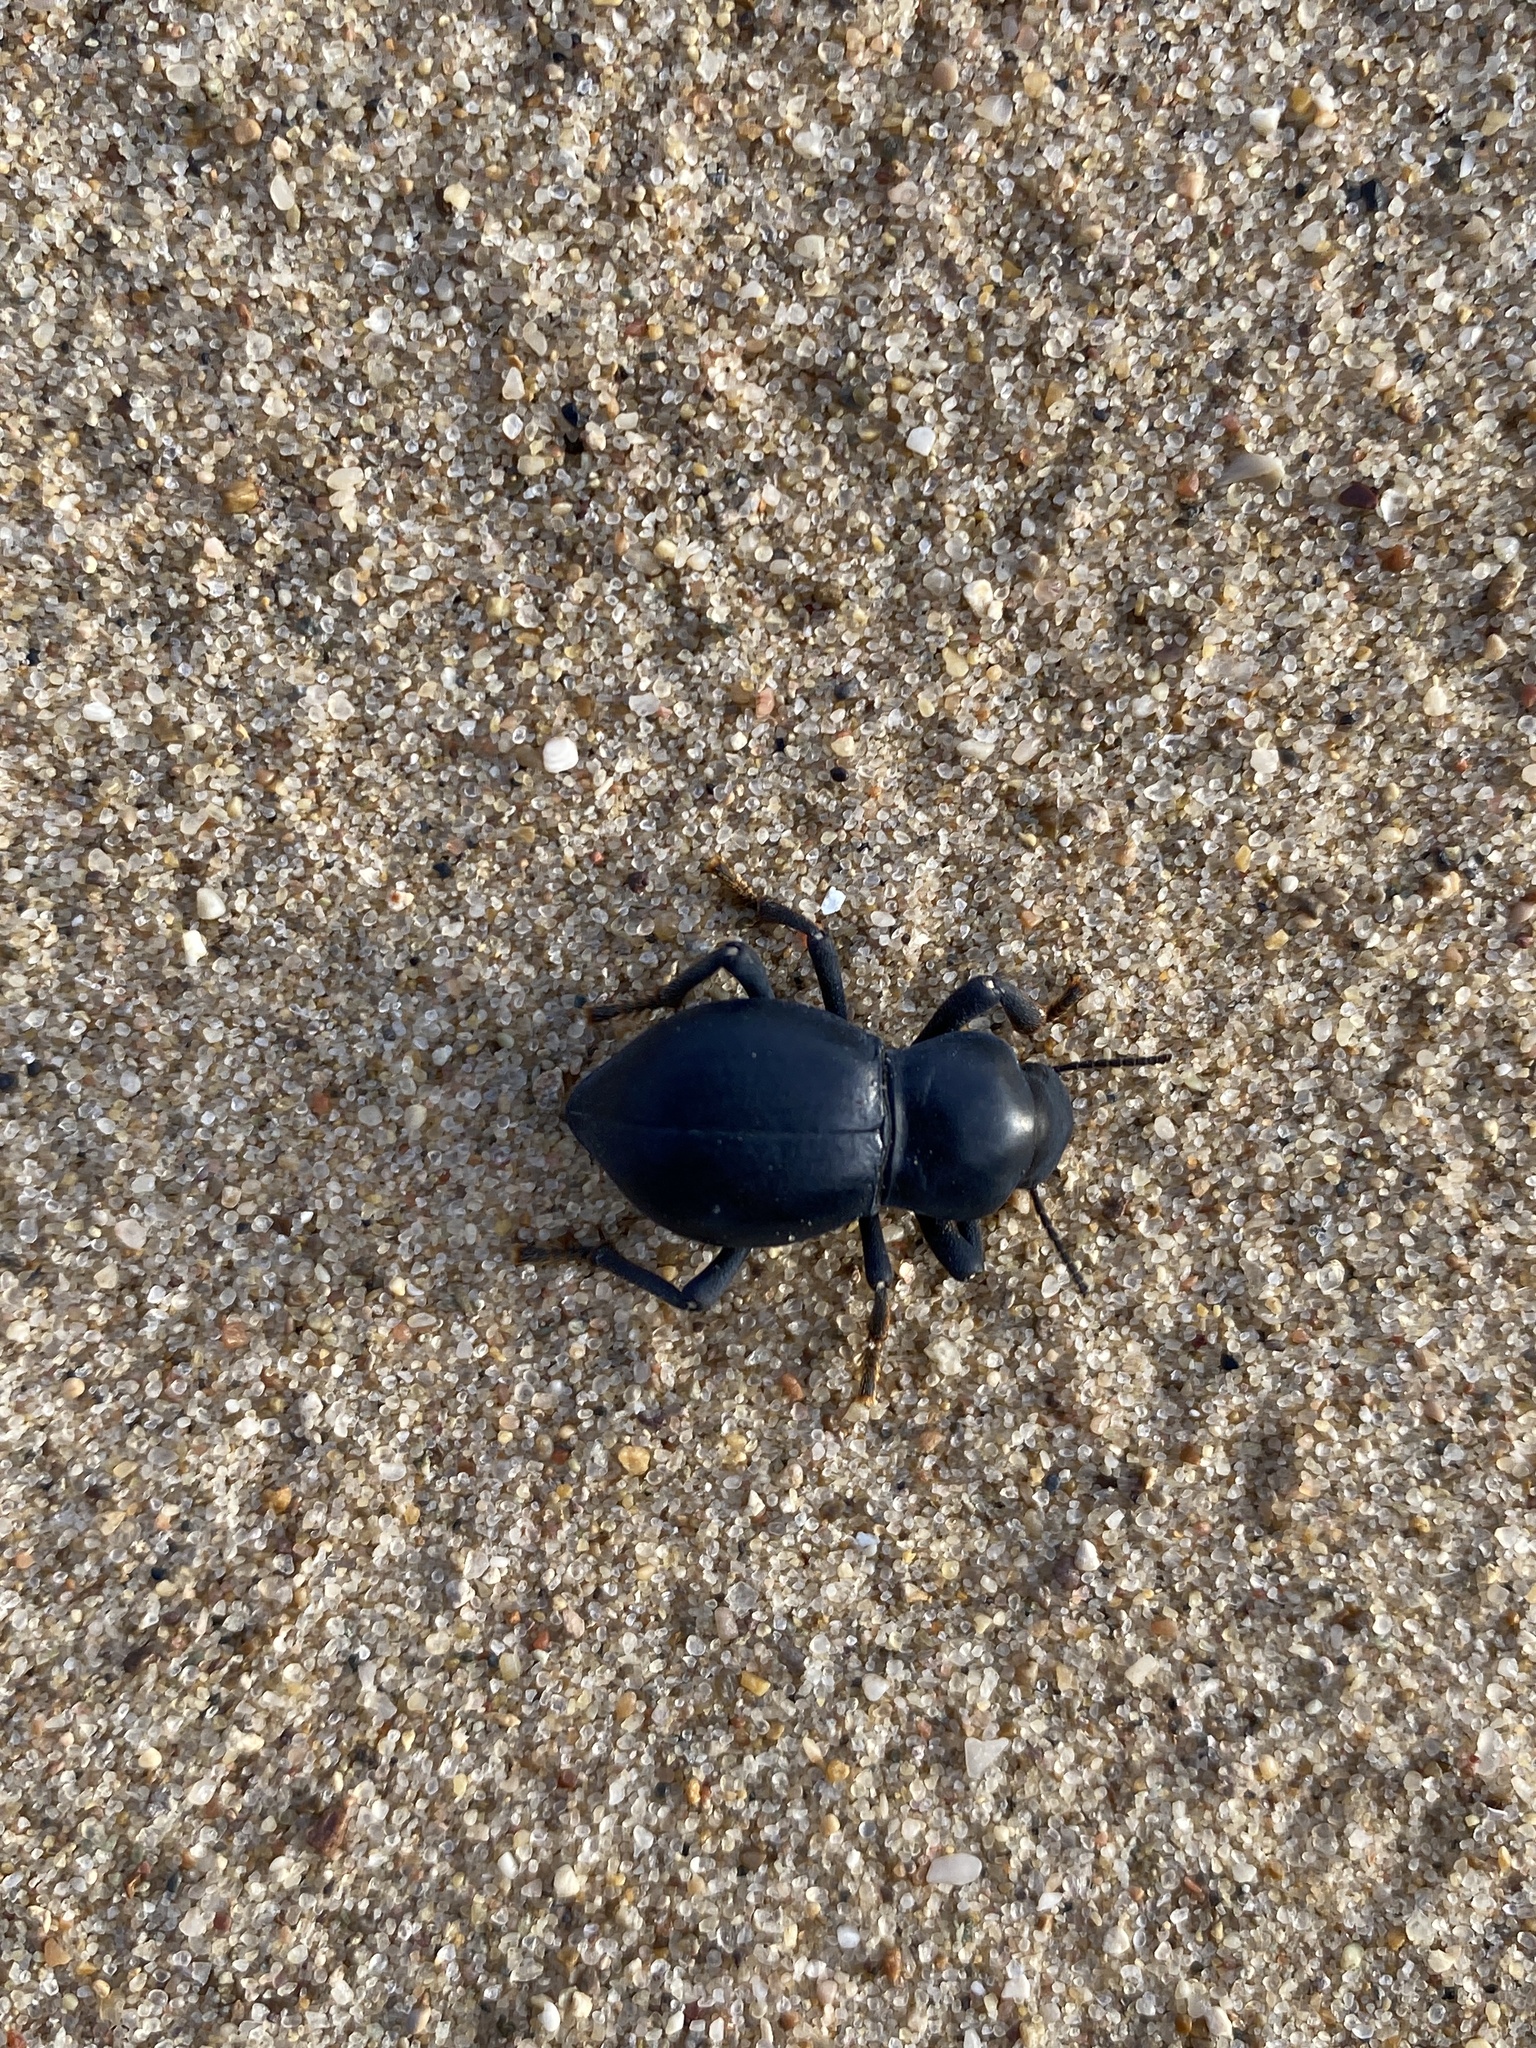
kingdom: Animalia
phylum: Arthropoda
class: Insecta
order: Coleoptera
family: Tenebrionidae
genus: Asbolus
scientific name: Asbolus laevis
